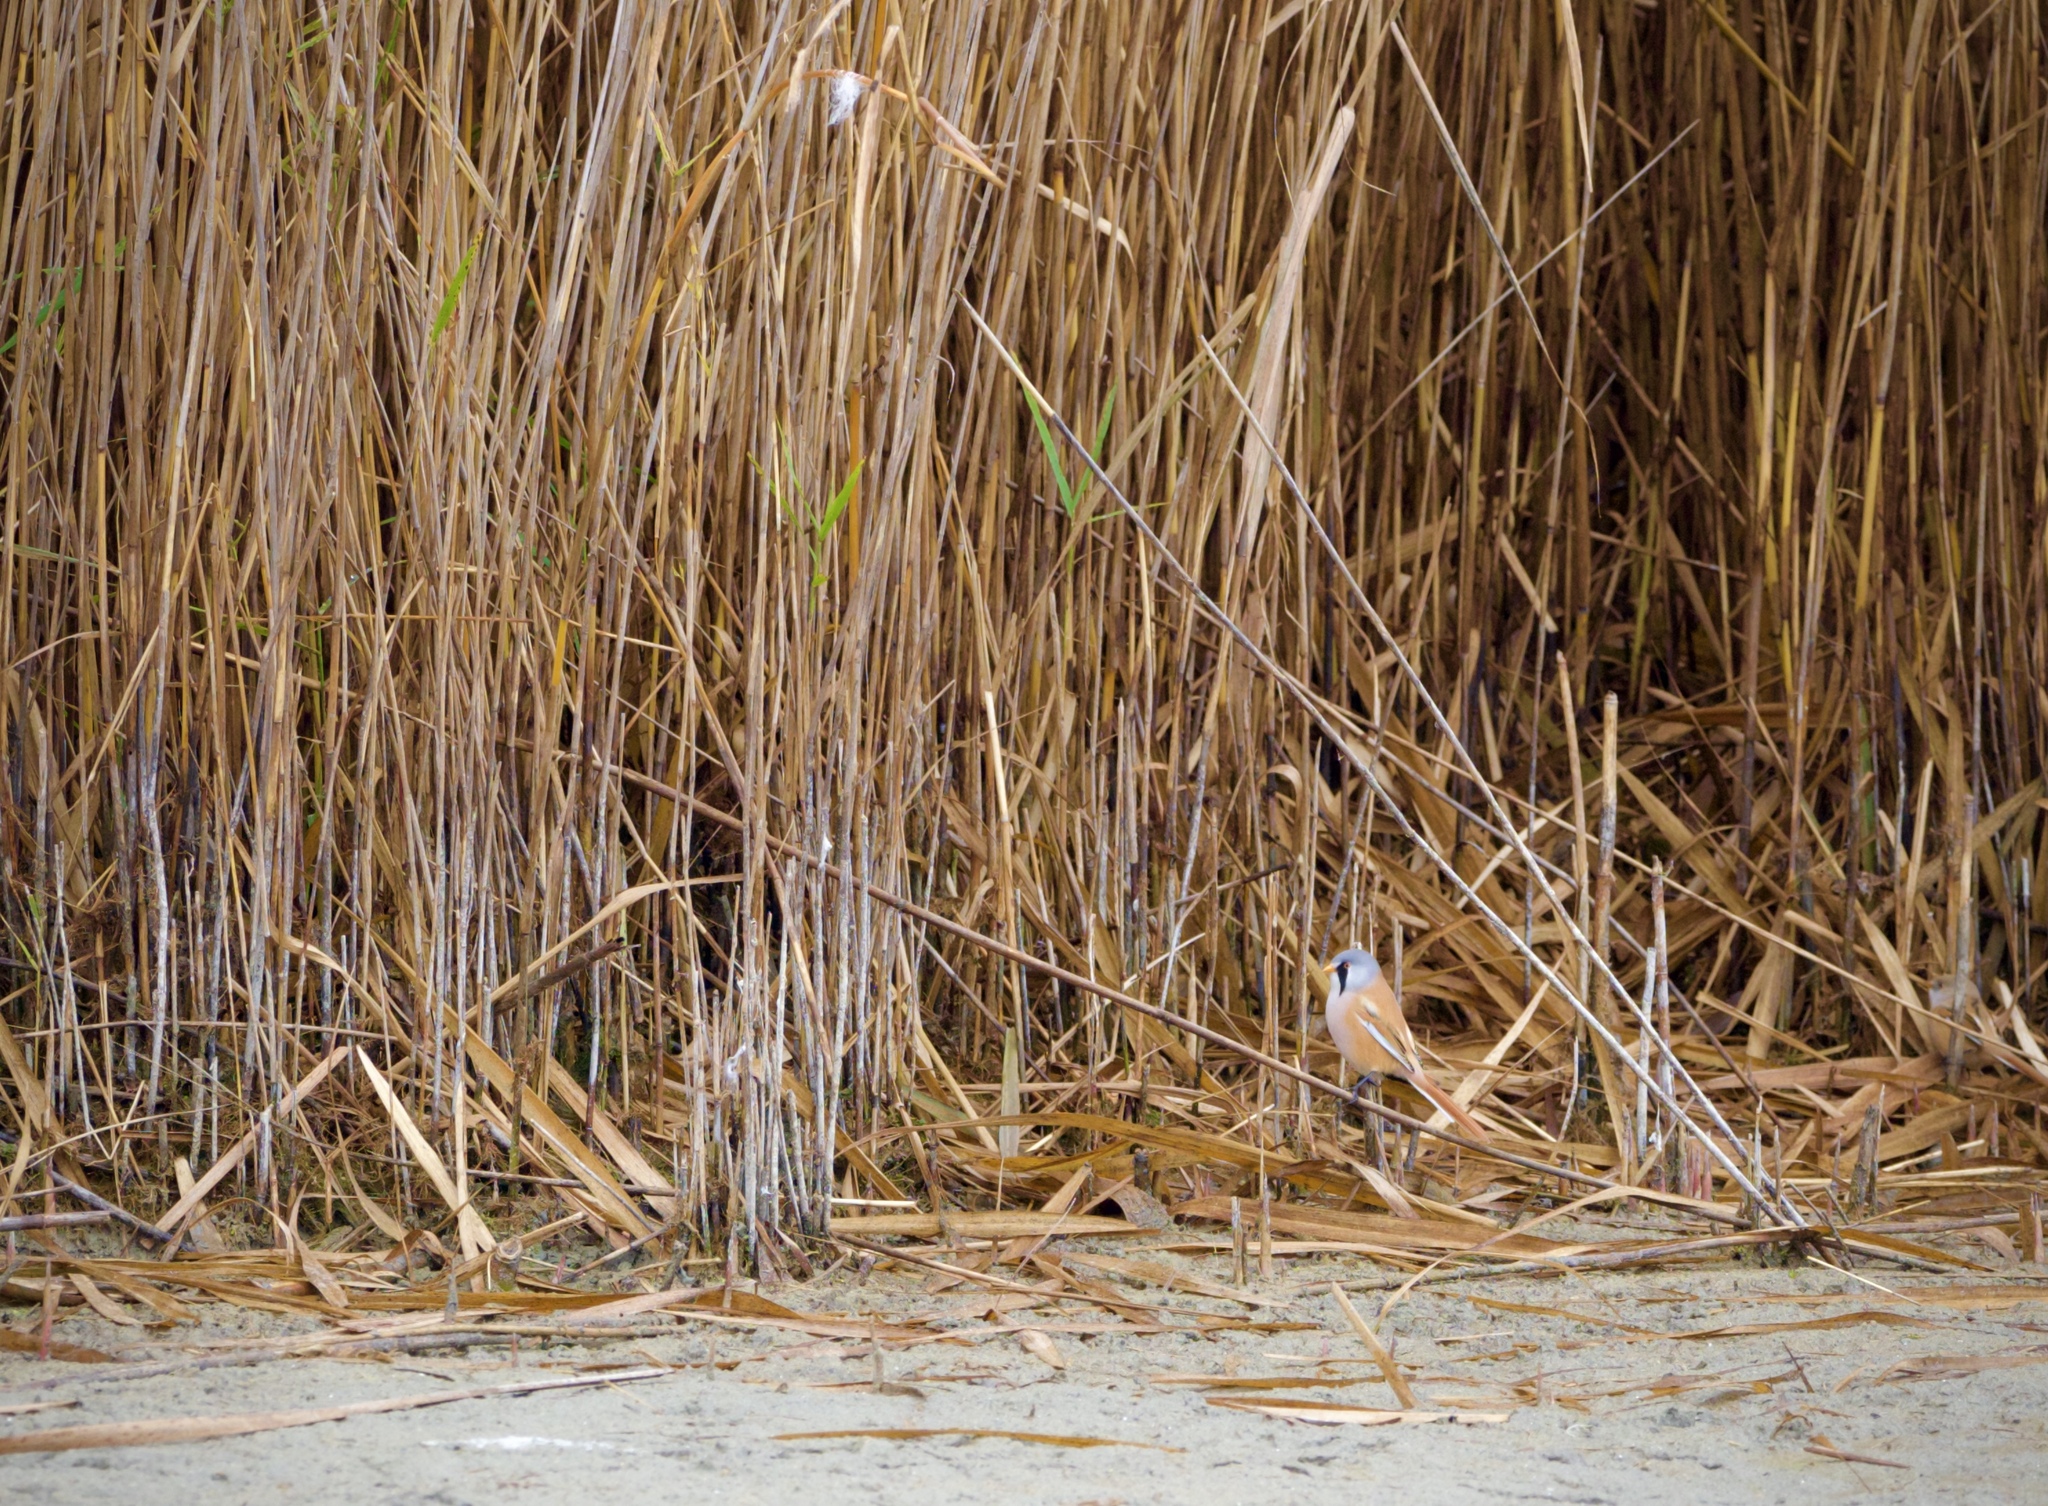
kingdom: Animalia
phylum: Chordata
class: Aves
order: Passeriformes
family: Panuridae
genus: Panurus
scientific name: Panurus biarmicus
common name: Bearded reedling
